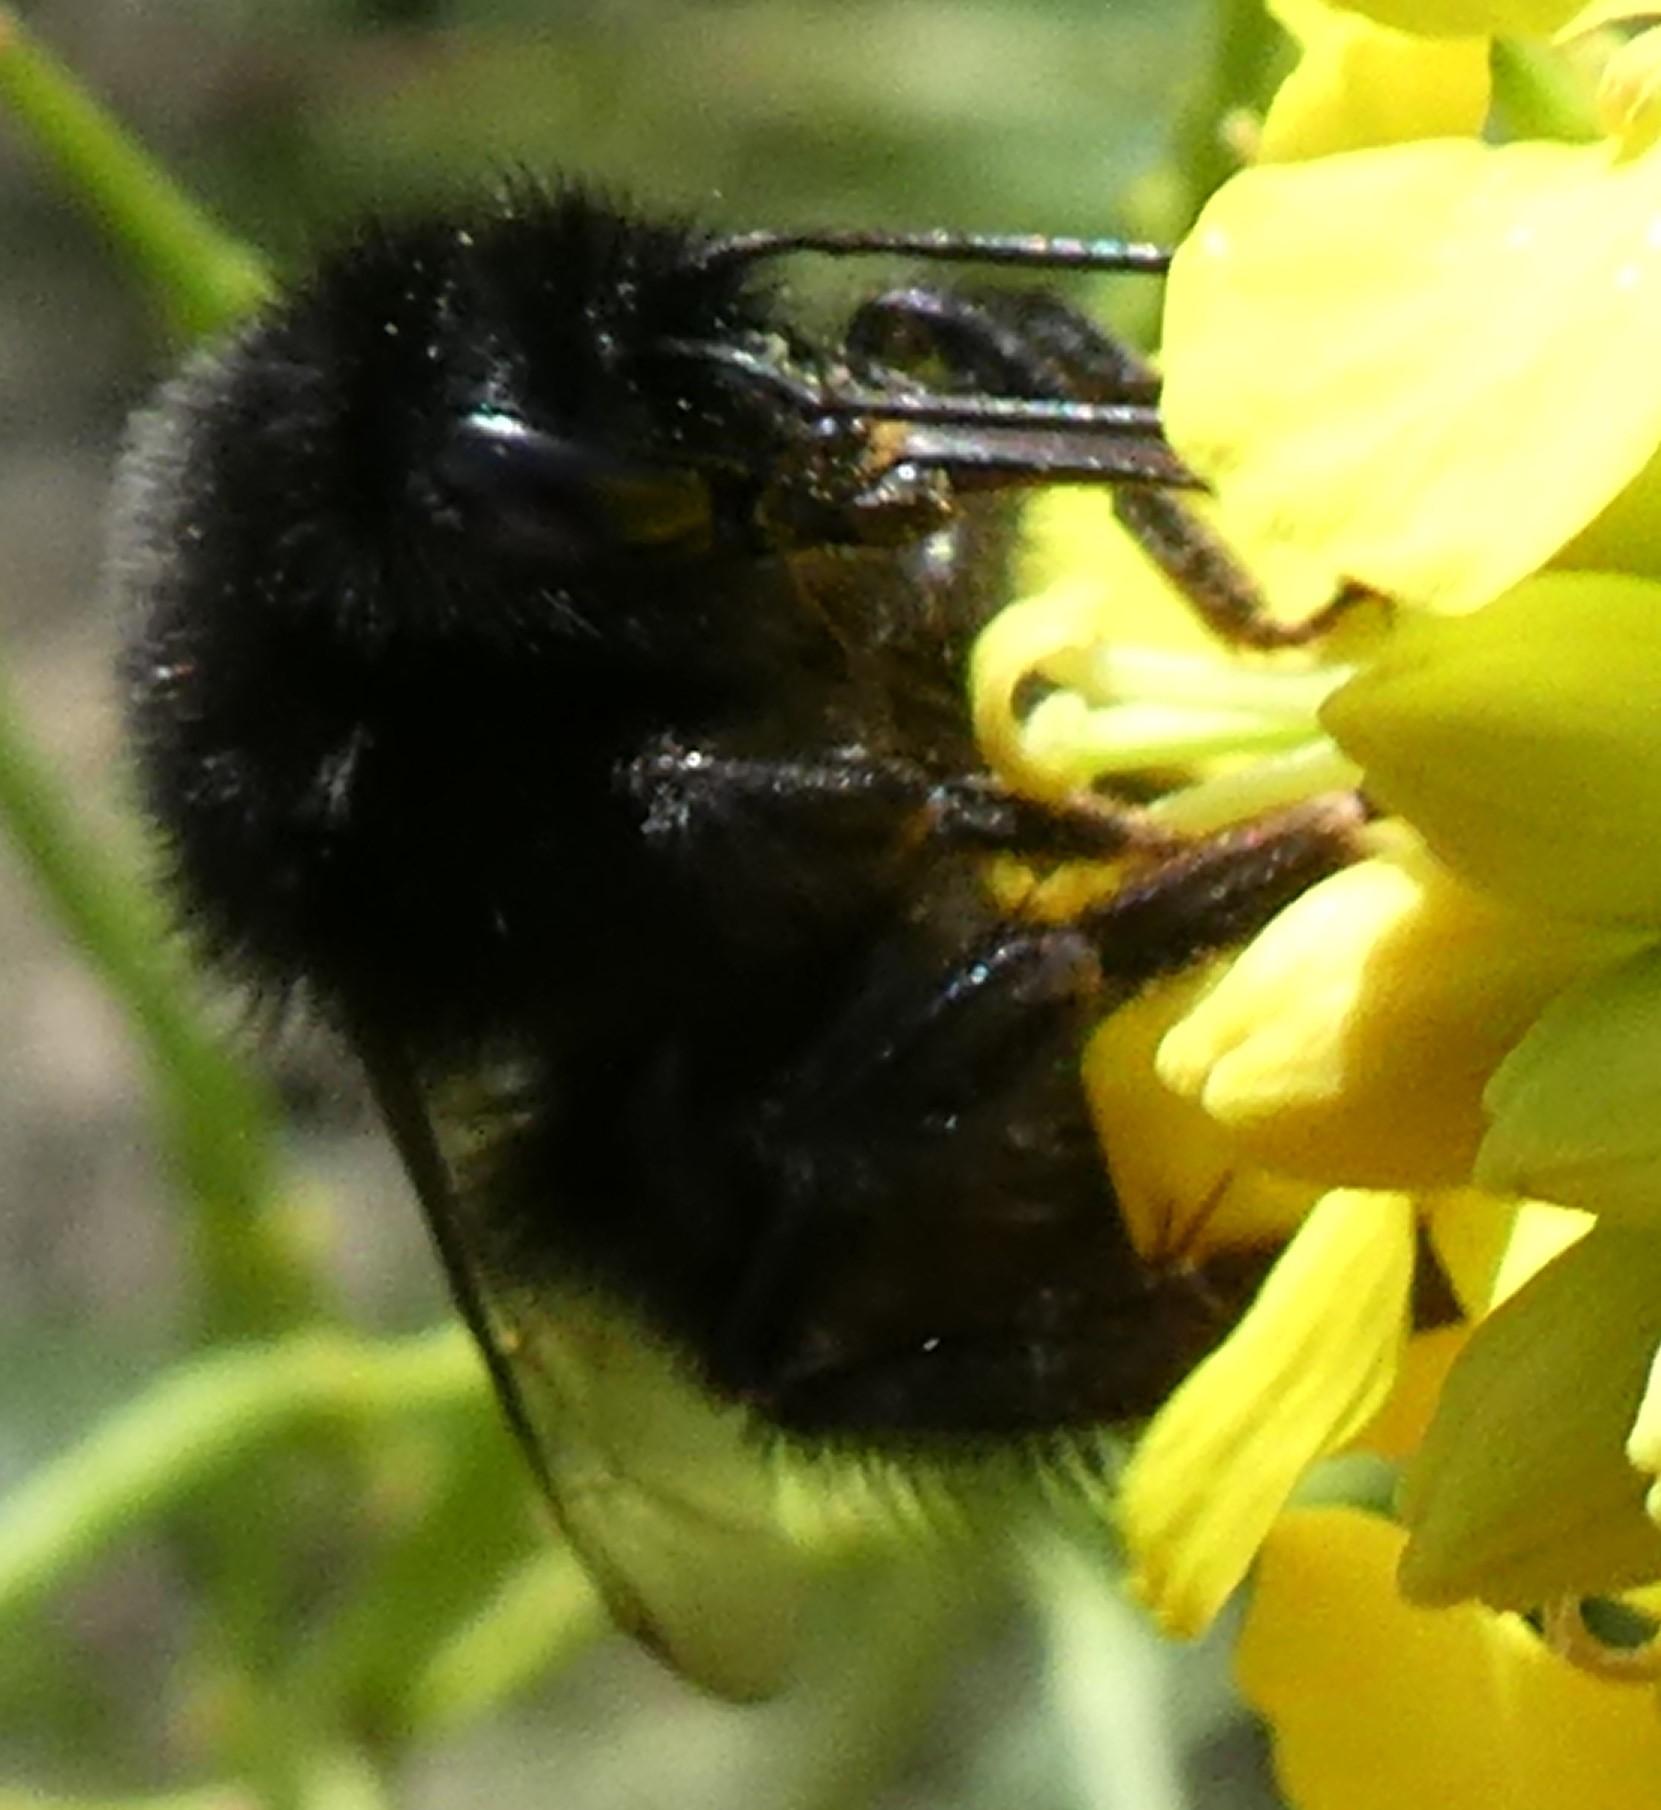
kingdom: Animalia
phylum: Arthropoda
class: Insecta
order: Hymenoptera
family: Apidae
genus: Bombus
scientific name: Bombus lapidarius
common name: Large red-tailed humble-bee
